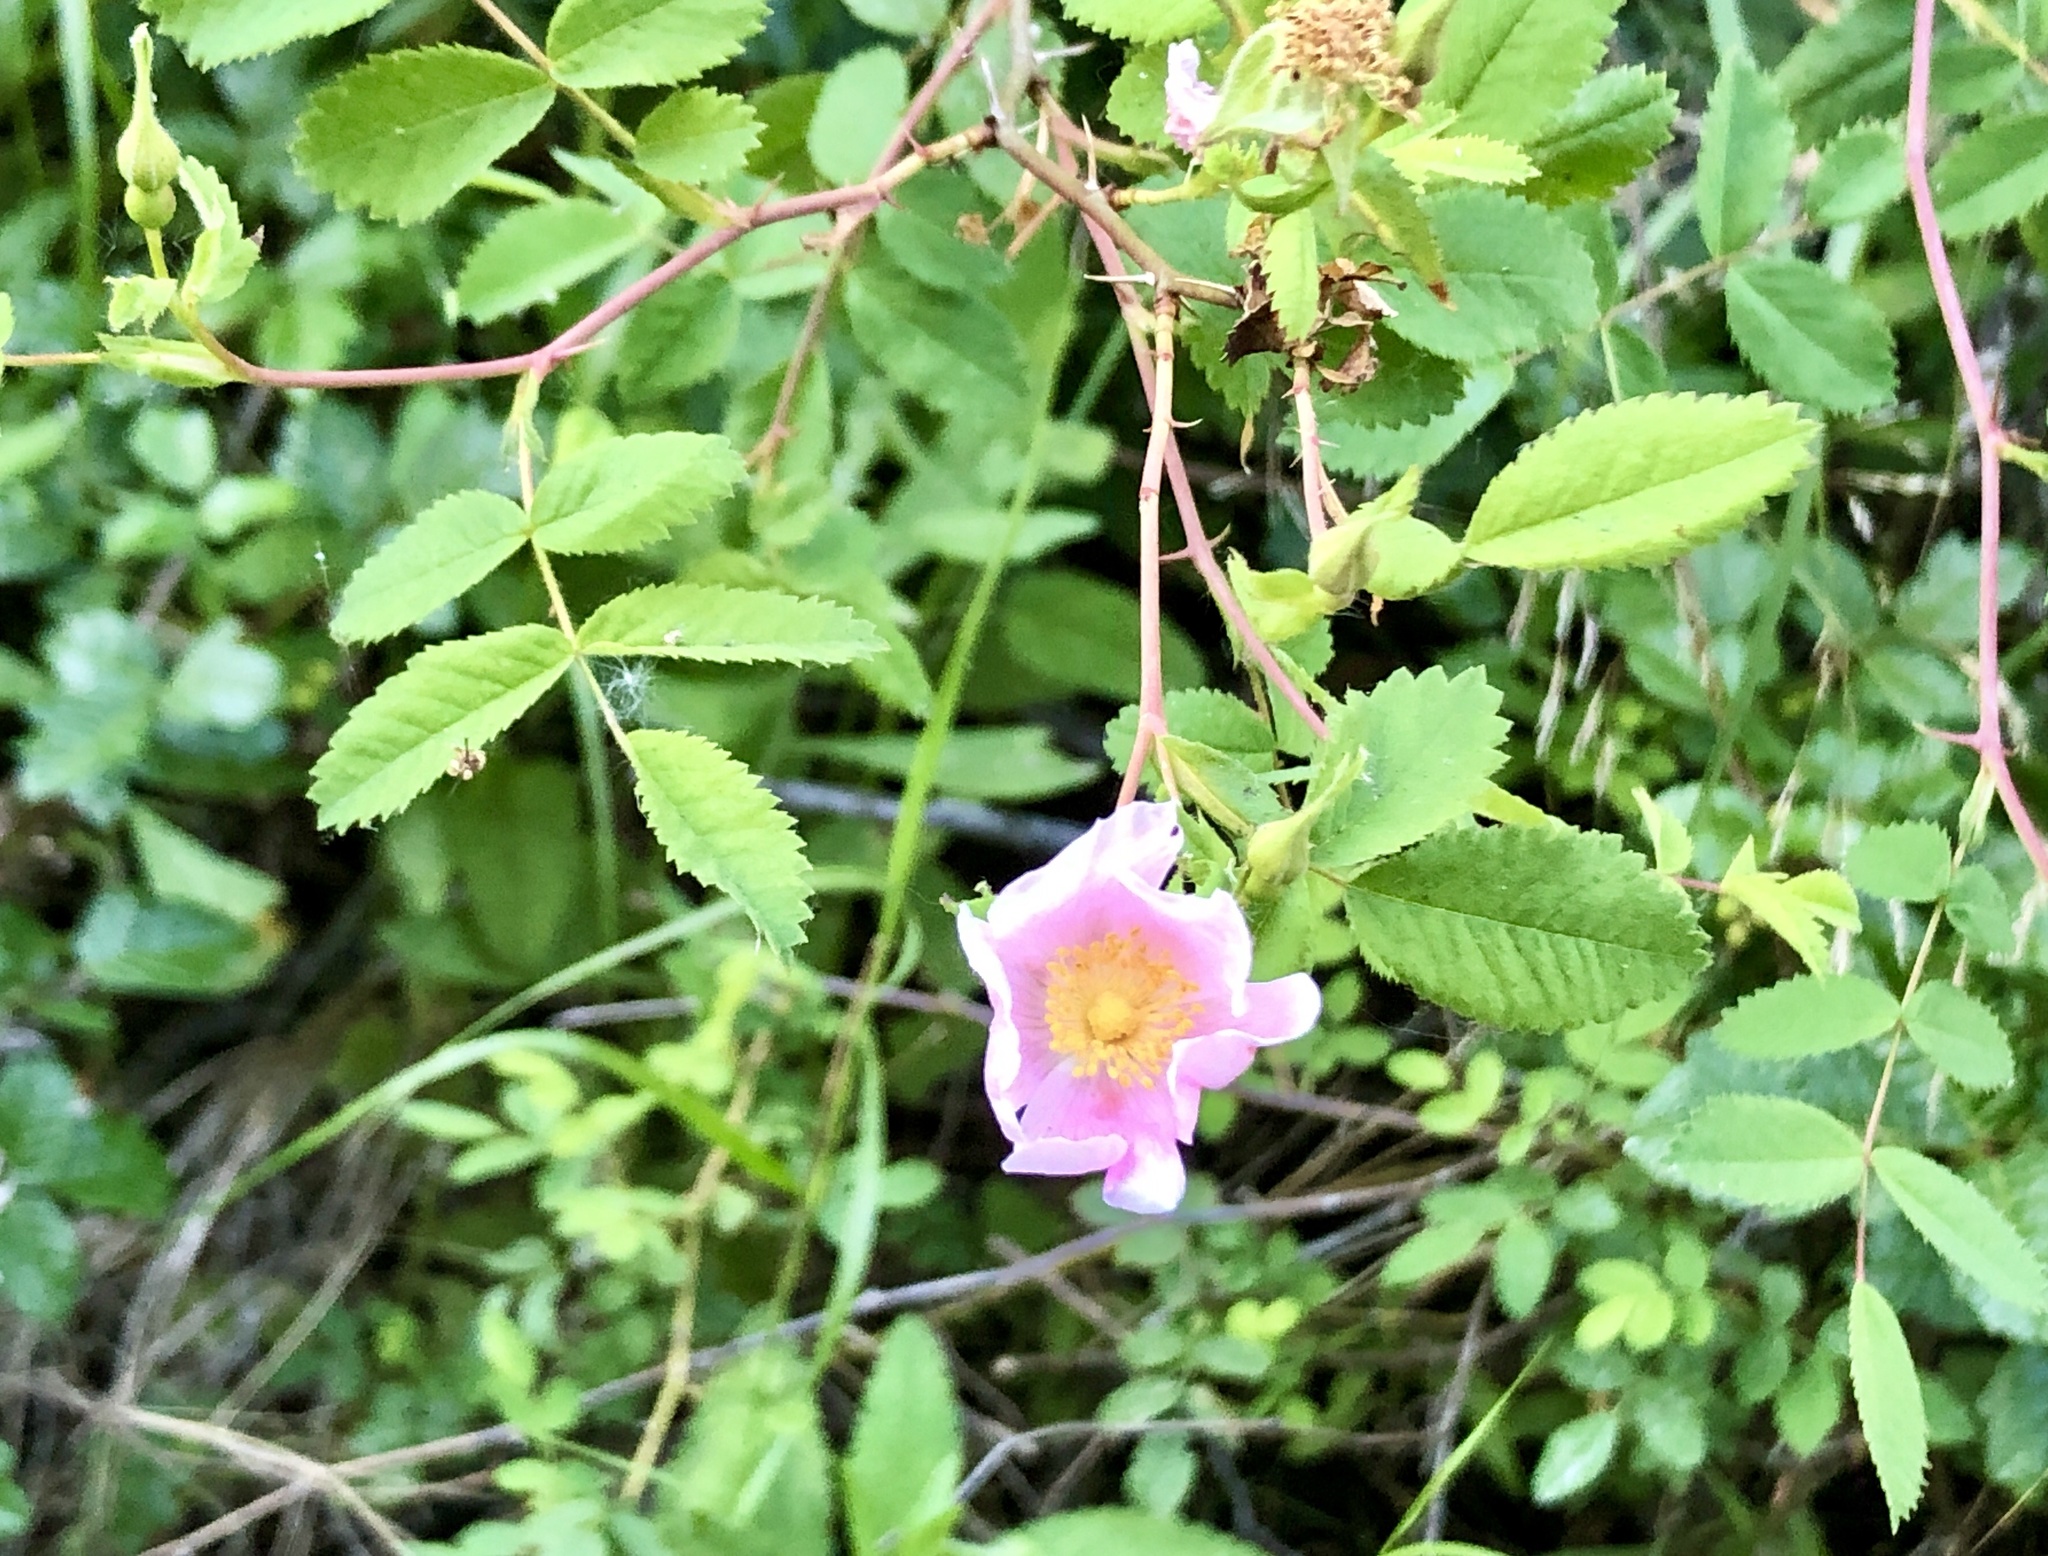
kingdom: Plantae
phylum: Tracheophyta
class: Magnoliopsida
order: Rosales
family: Rosaceae
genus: Rosa
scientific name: Rosa californica
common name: California rose
